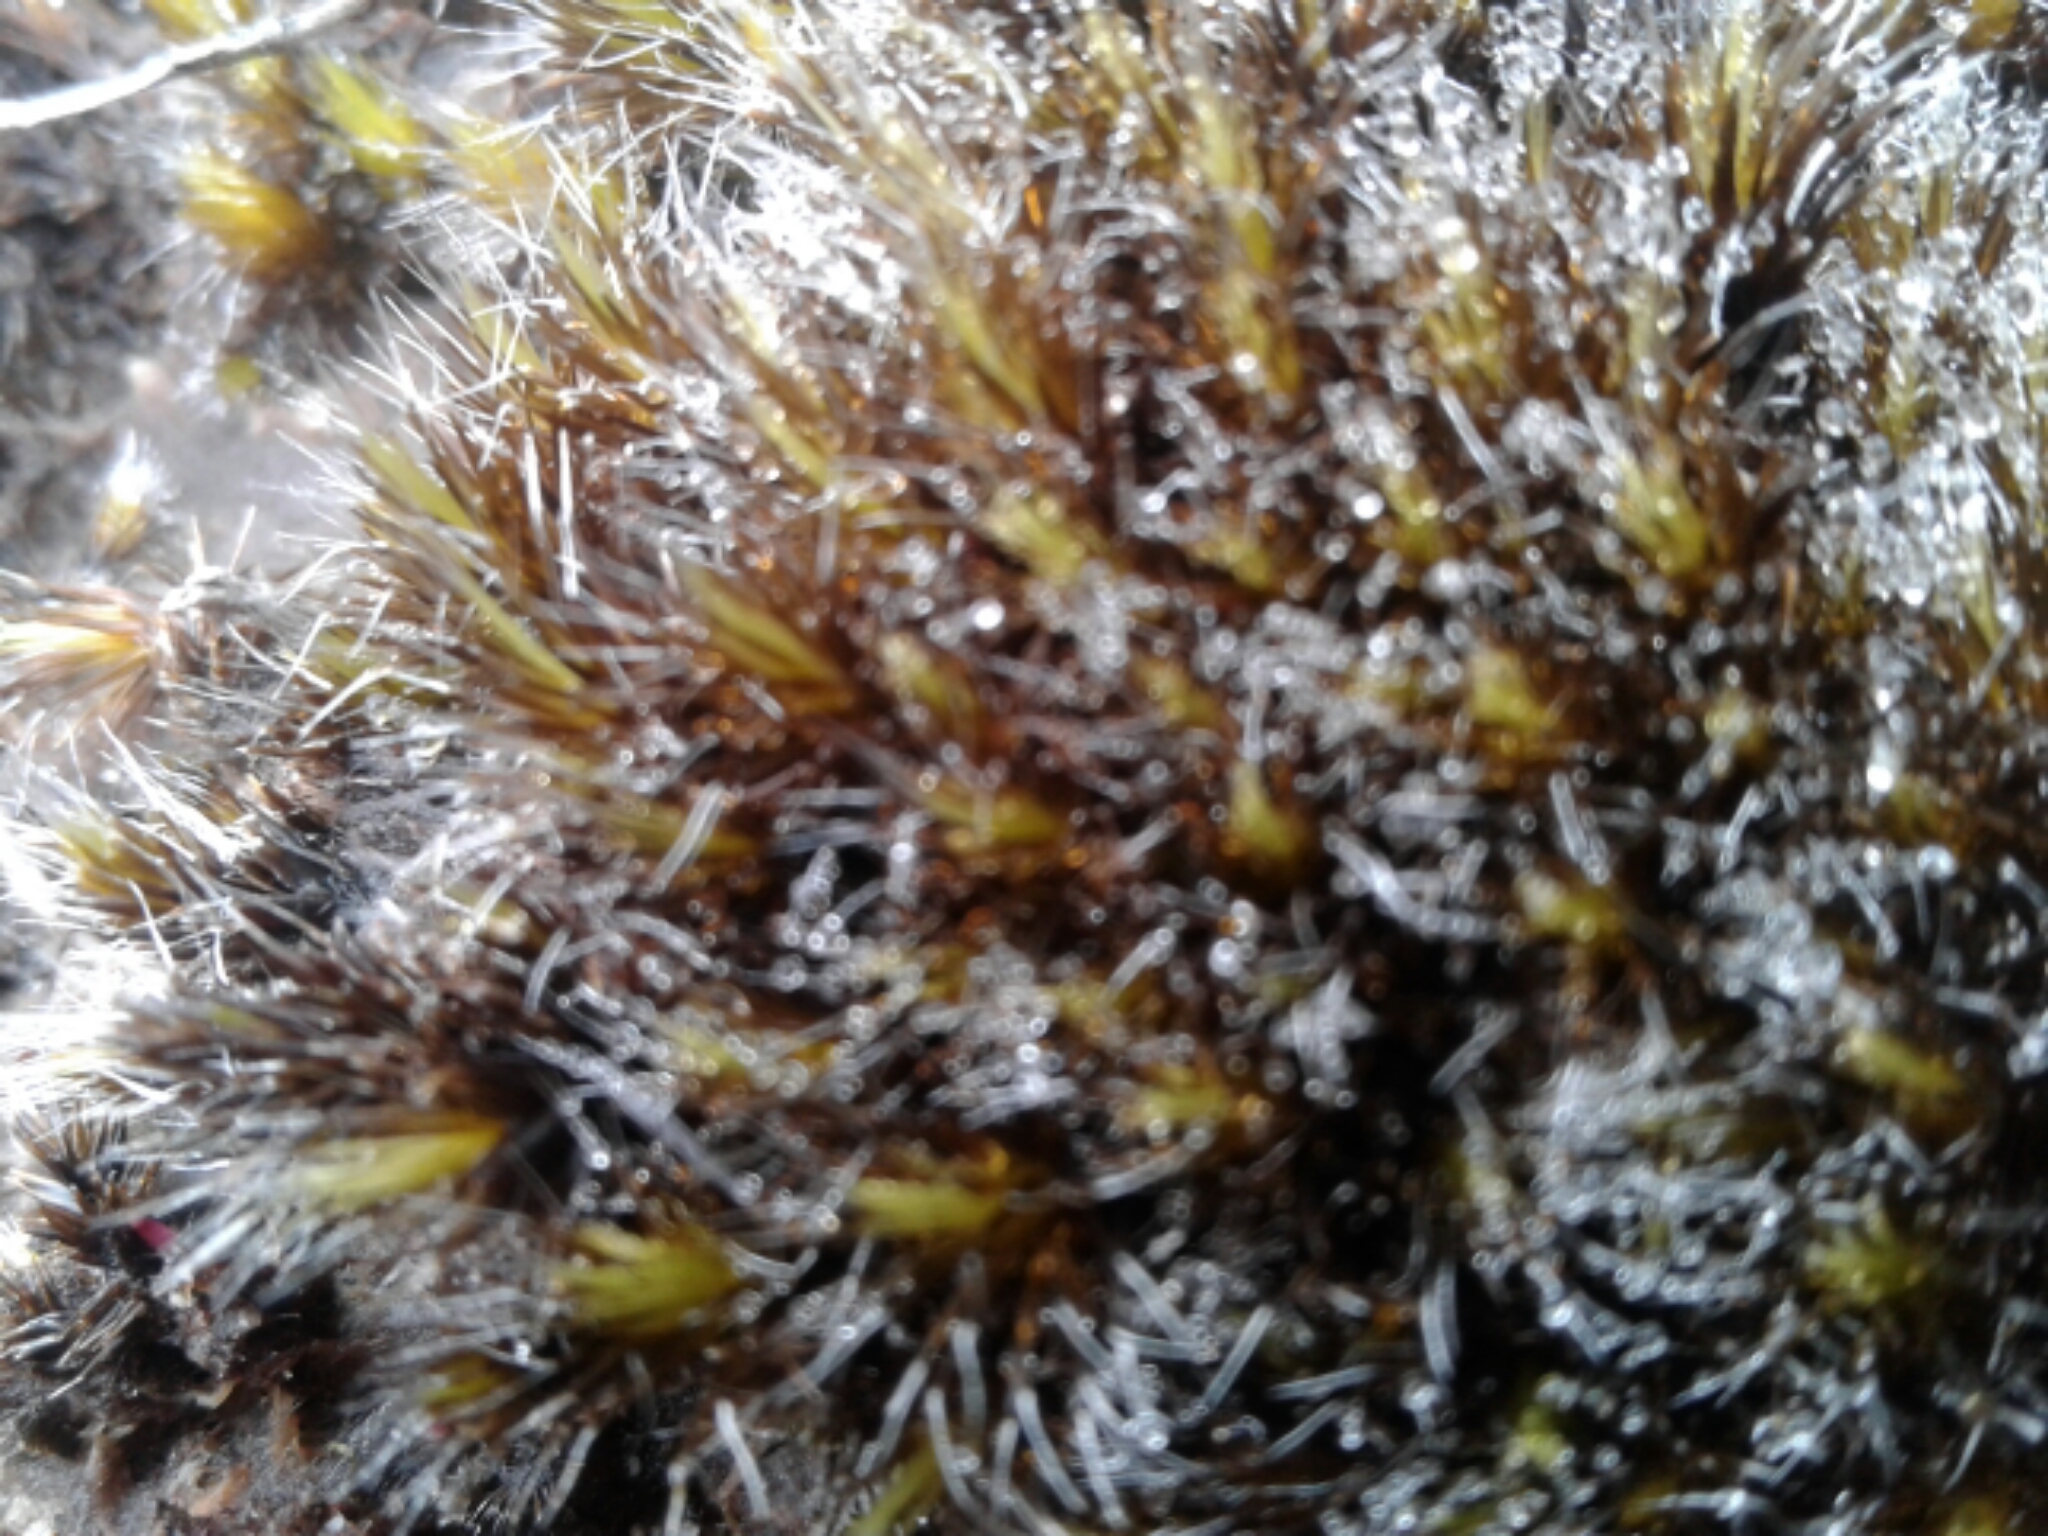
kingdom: Plantae
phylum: Bryophyta
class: Bryopsida
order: Dicranales
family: Leucobryaceae
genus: Campylopus
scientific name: Campylopus introflexus
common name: Heath star moss
